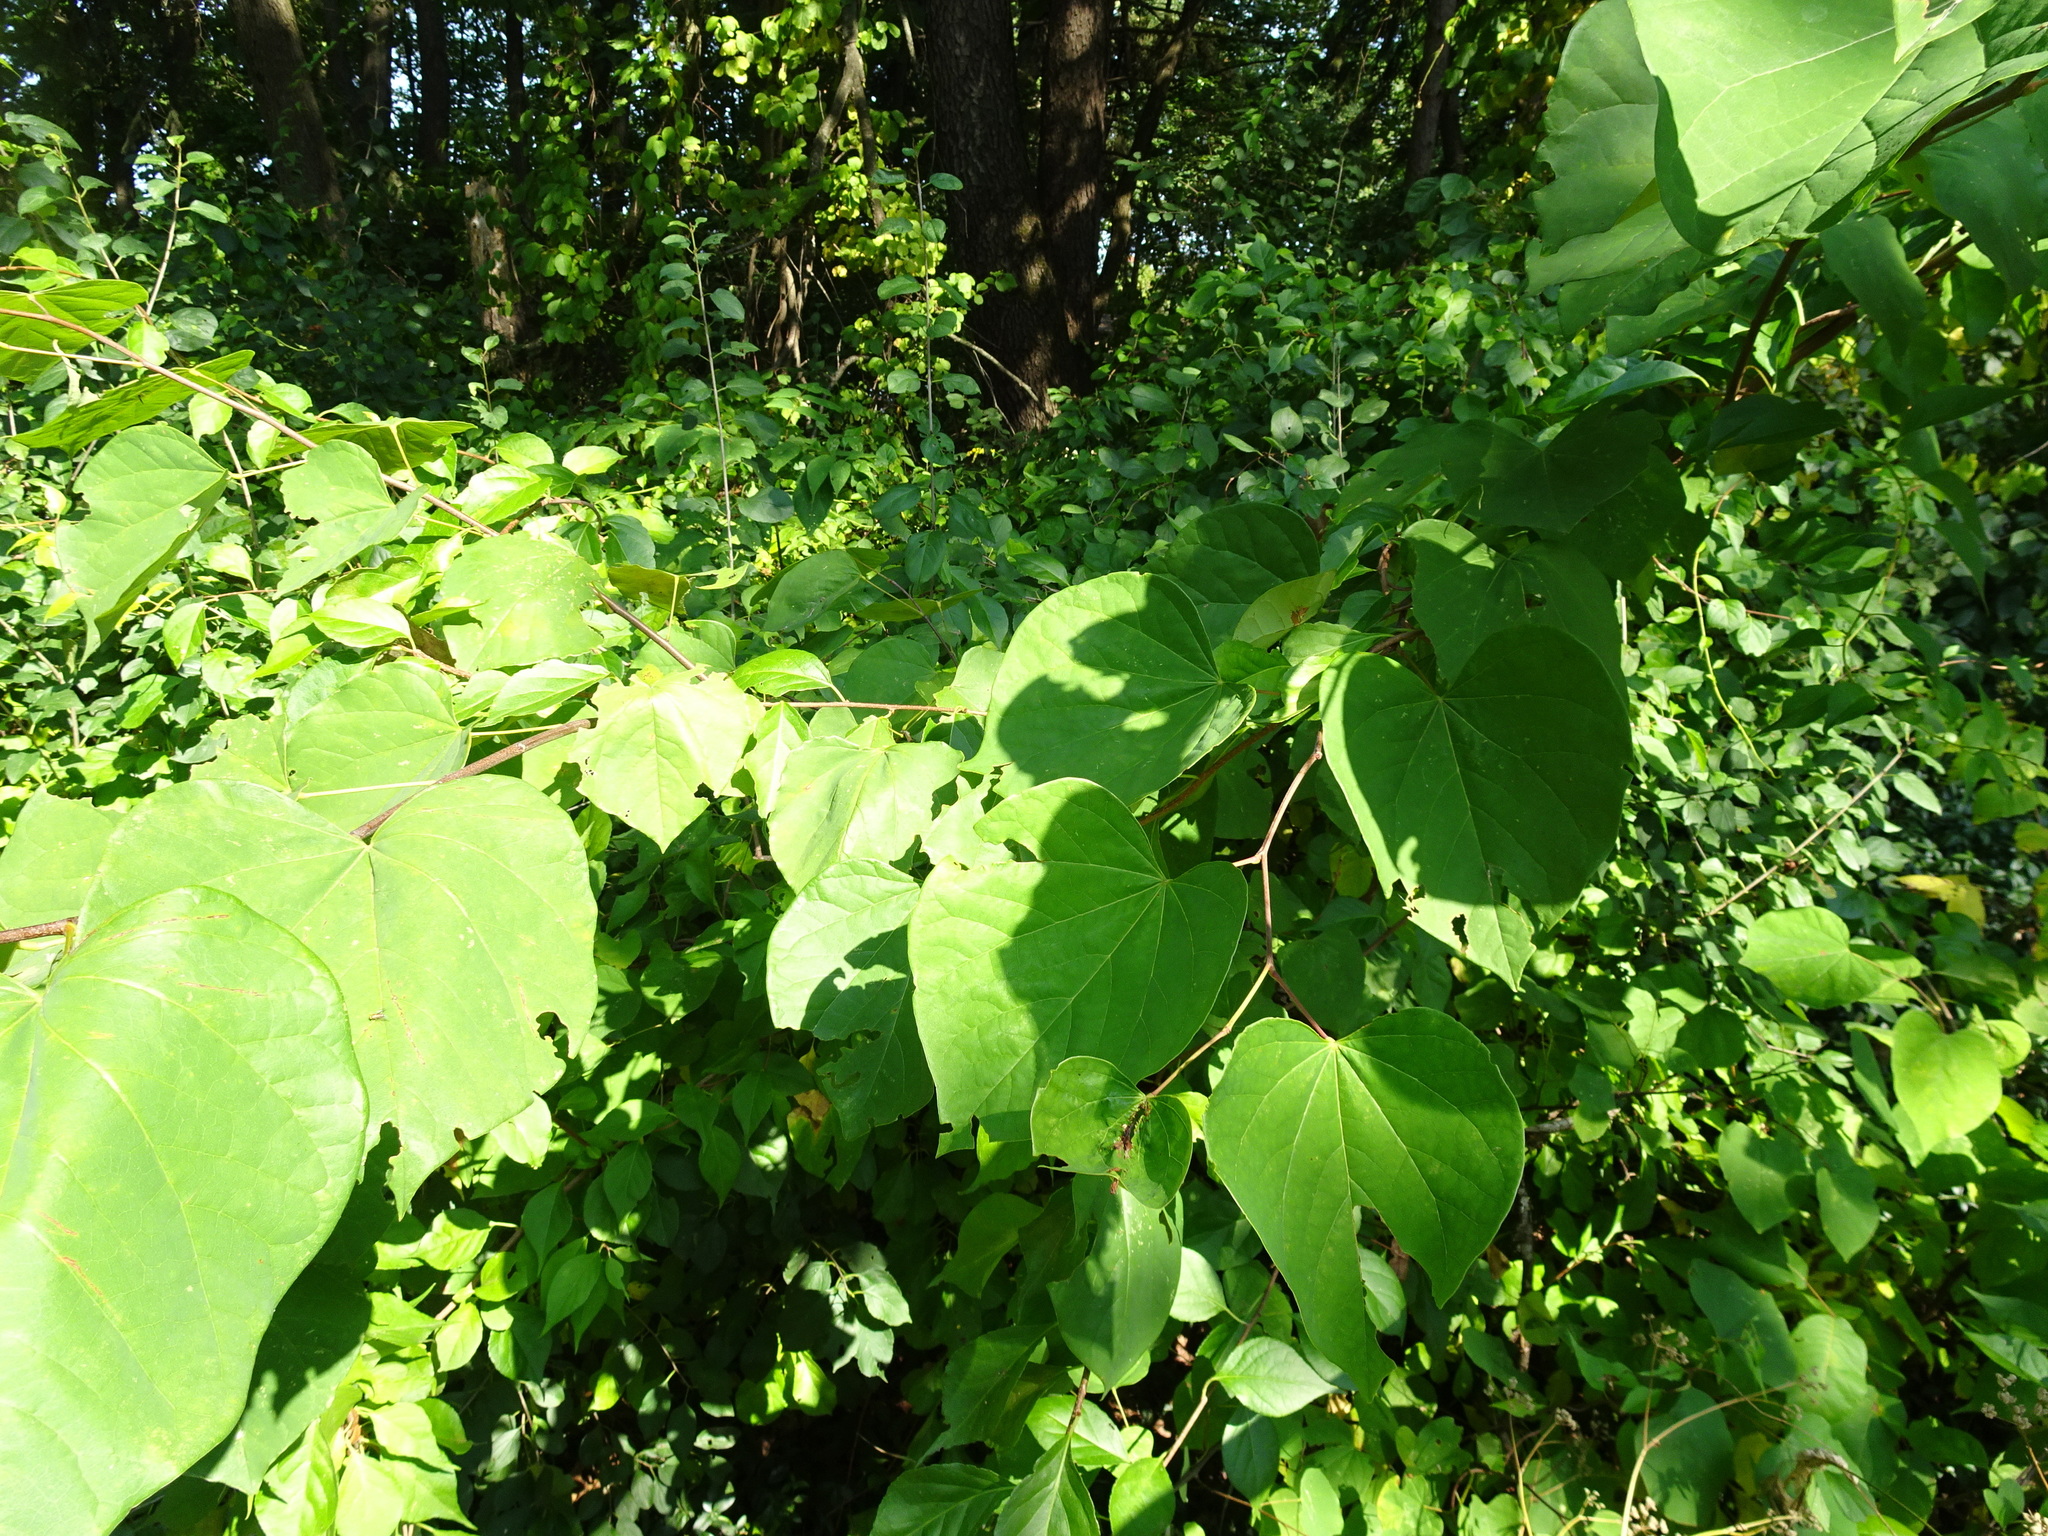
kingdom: Plantae
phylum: Tracheophyta
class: Magnoliopsida
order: Fabales
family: Fabaceae
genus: Cercis
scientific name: Cercis canadensis
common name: Eastern redbud
